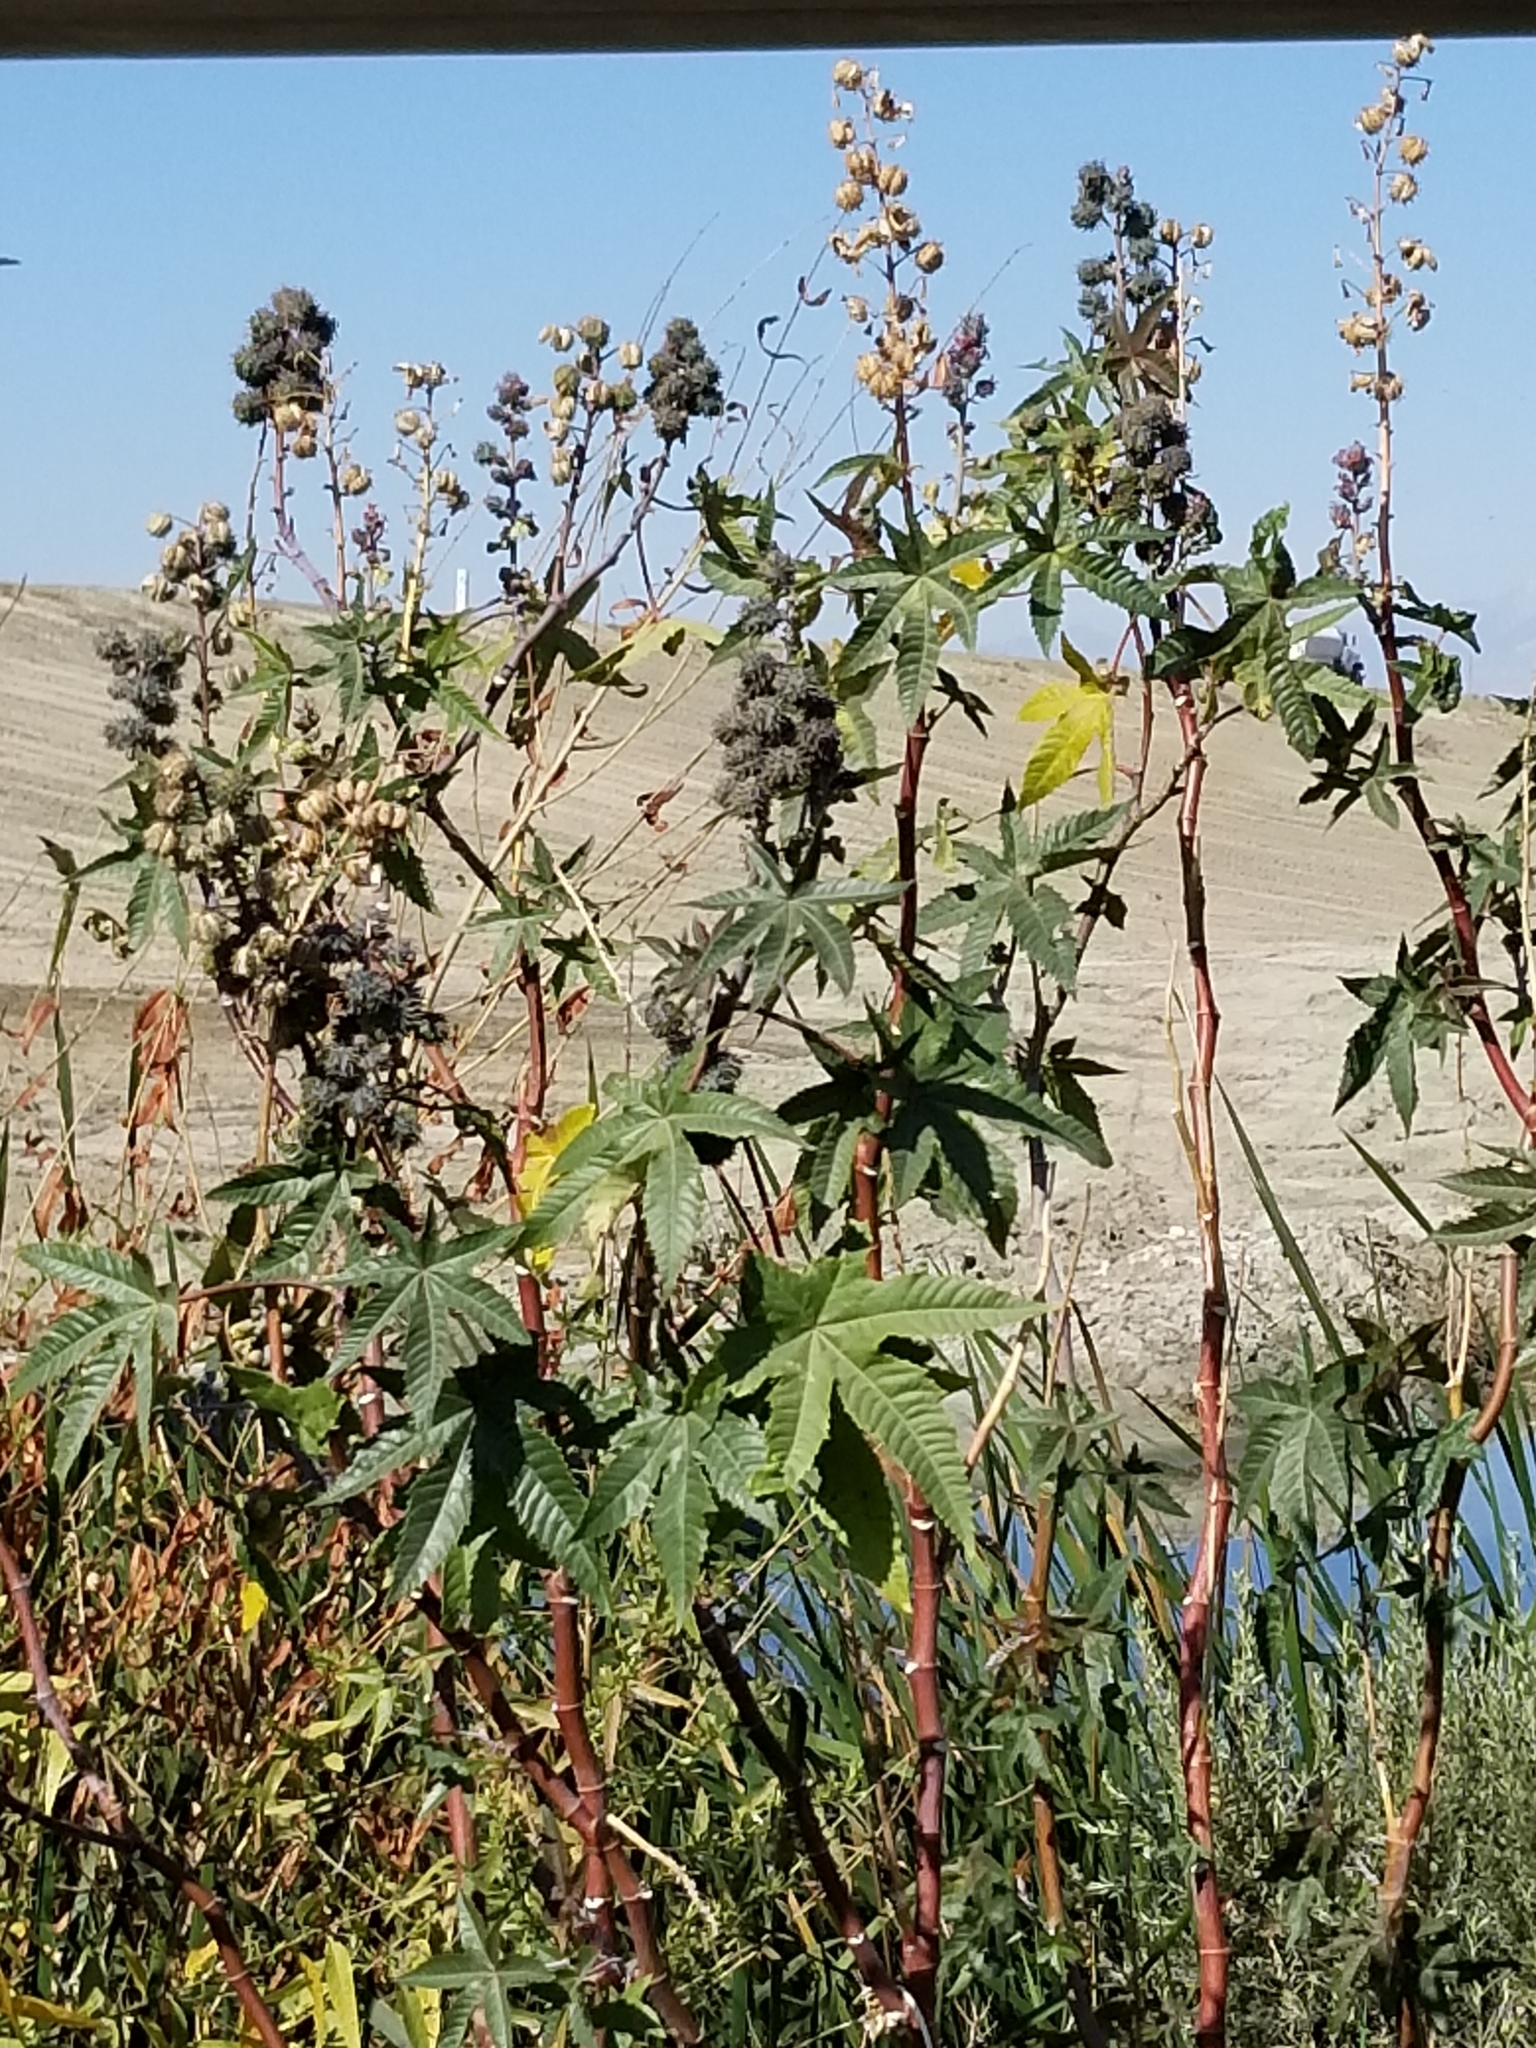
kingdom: Plantae
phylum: Tracheophyta
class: Magnoliopsida
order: Malpighiales
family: Euphorbiaceae
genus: Ricinus
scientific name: Ricinus communis
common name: Castor-oil-plant
